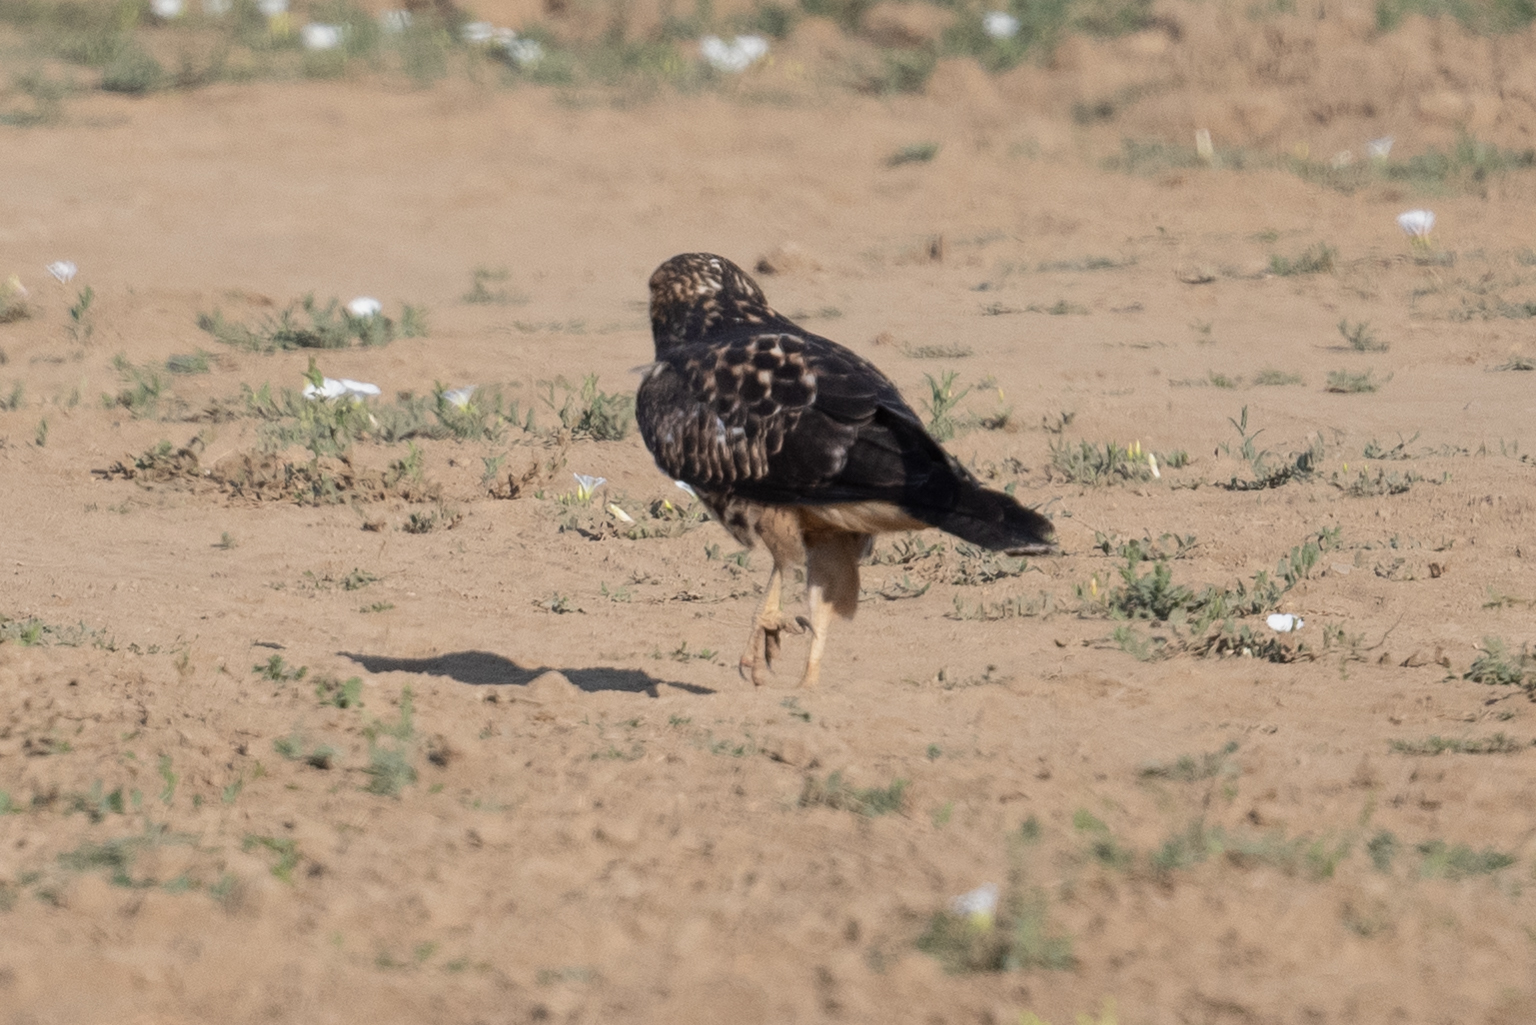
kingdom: Animalia
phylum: Chordata
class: Aves
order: Accipitriformes
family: Accipitridae
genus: Buteo
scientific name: Buteo swainsoni
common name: Swainson's hawk
